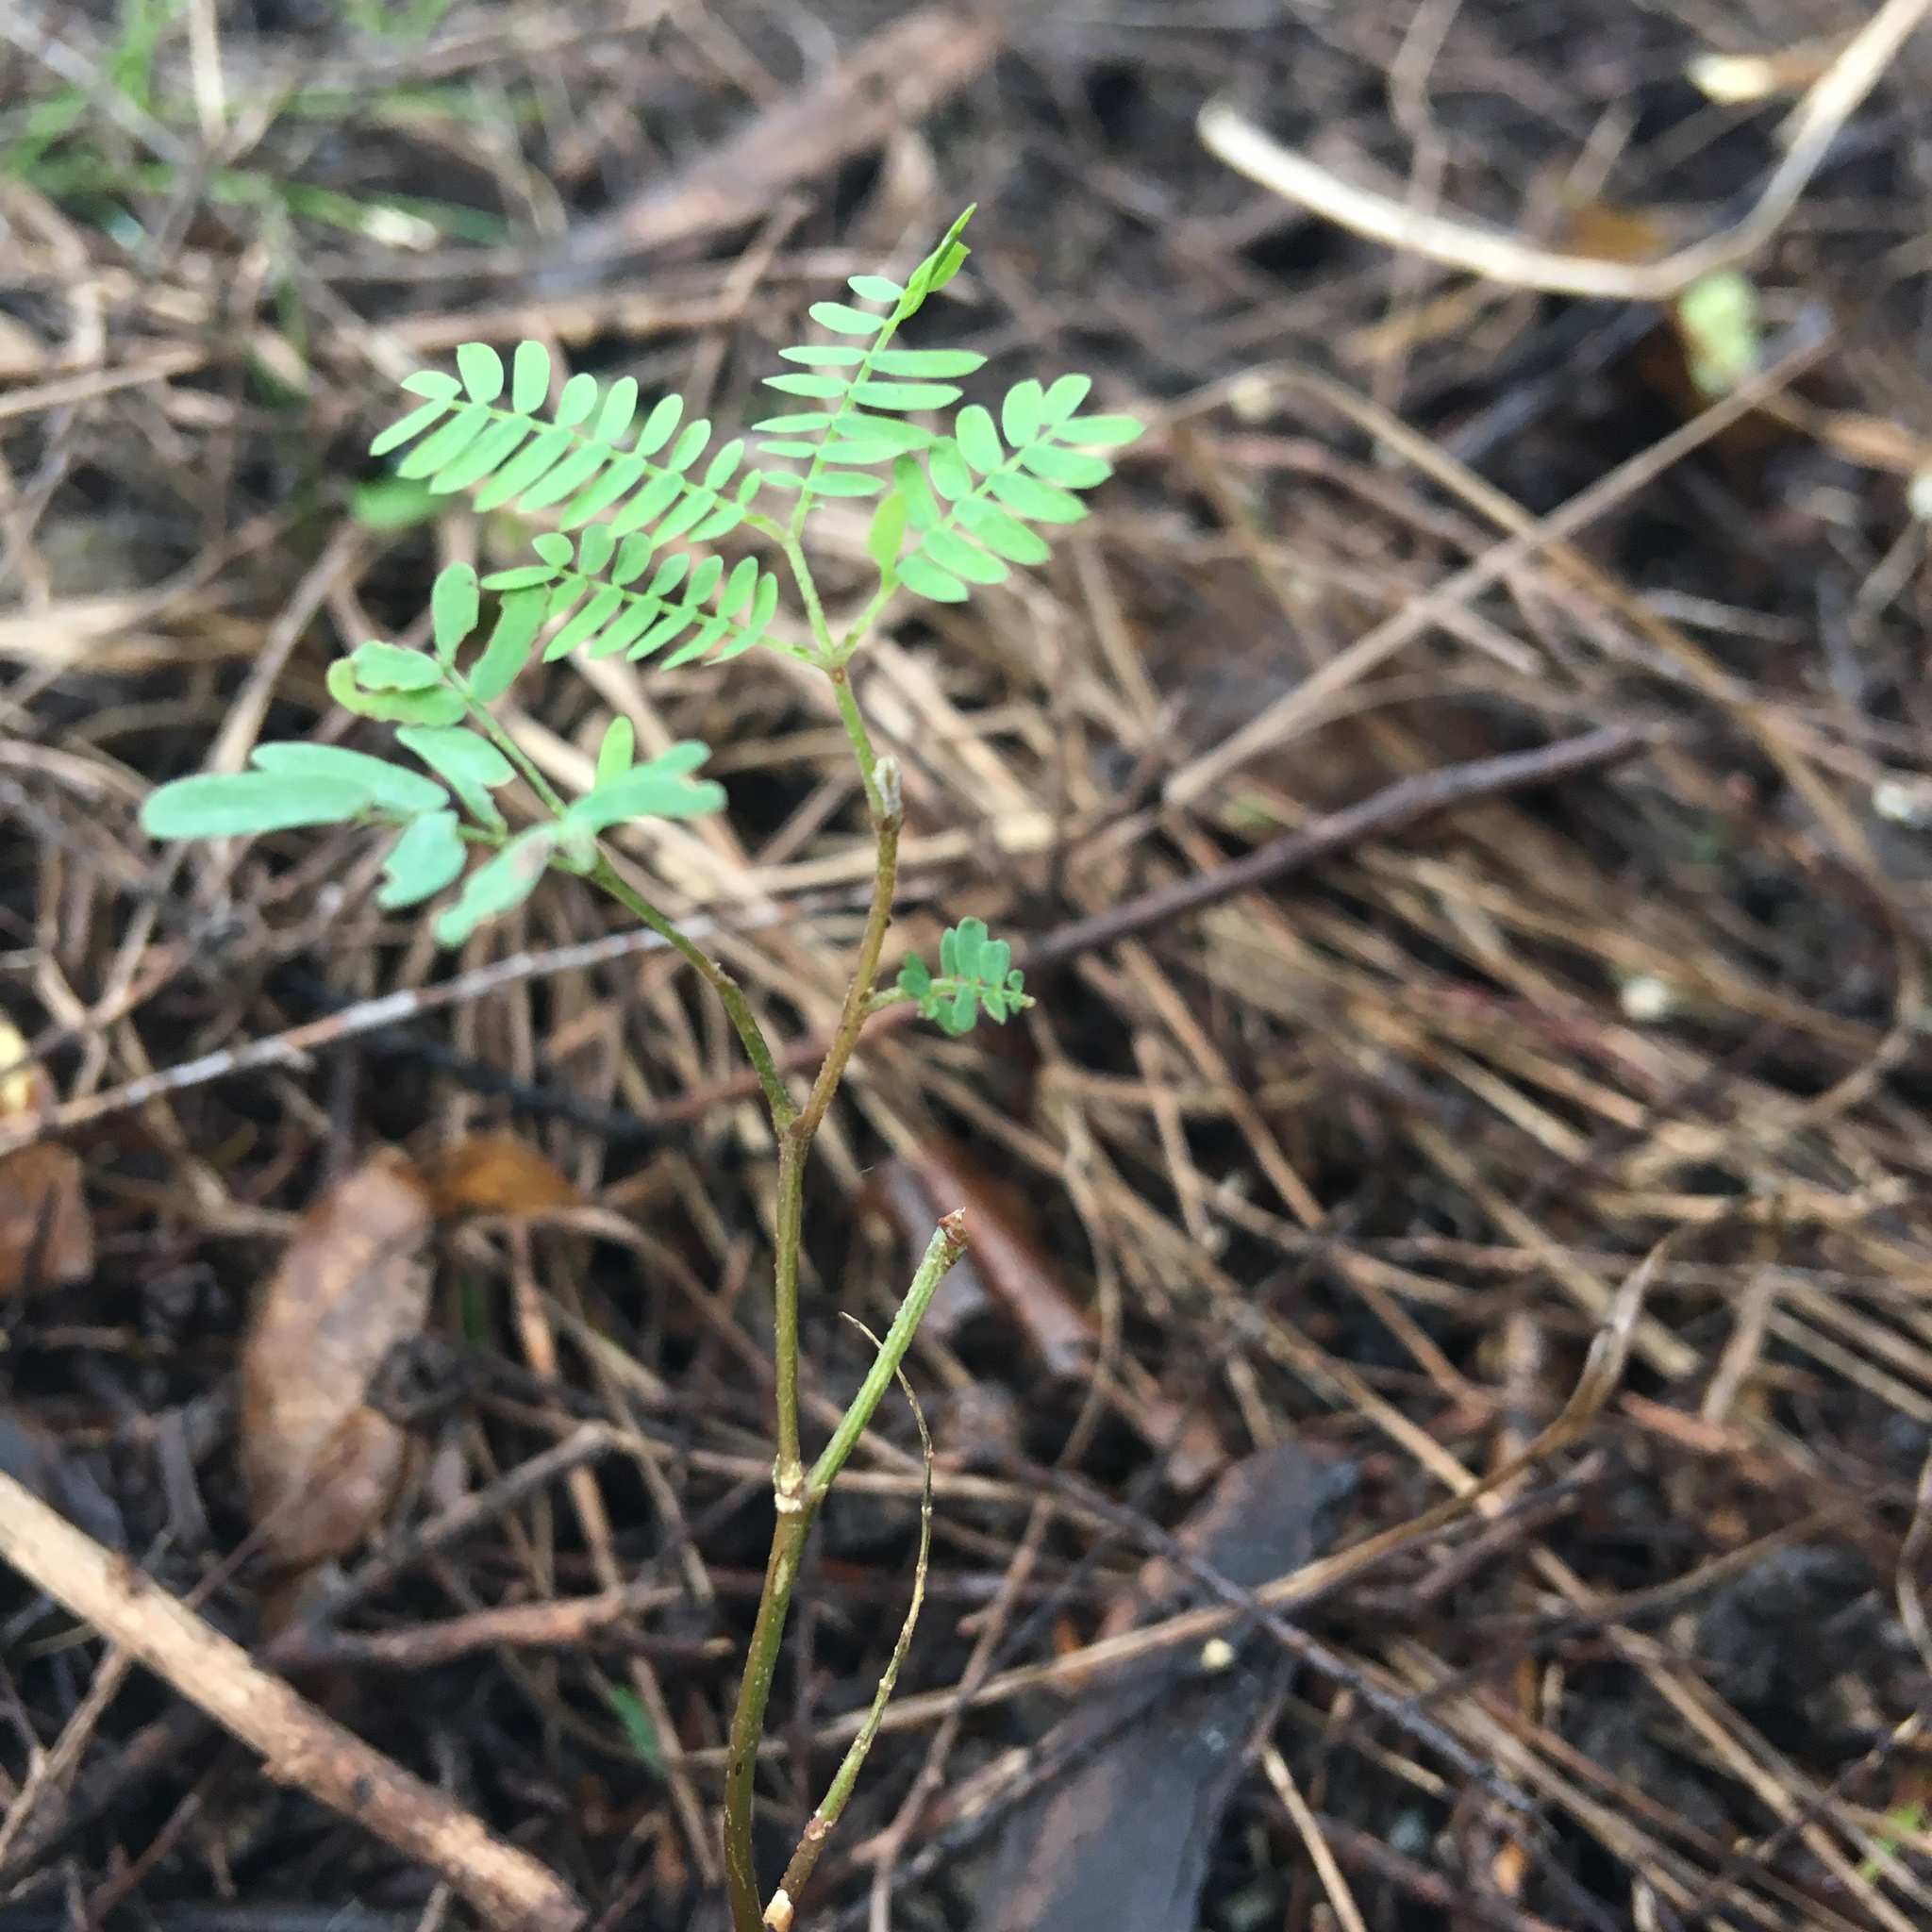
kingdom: Plantae
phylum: Tracheophyta
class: Magnoliopsida
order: Fabales
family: Fabaceae
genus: Paraserianthes
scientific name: Paraserianthes lophantha
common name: Plume albizia
